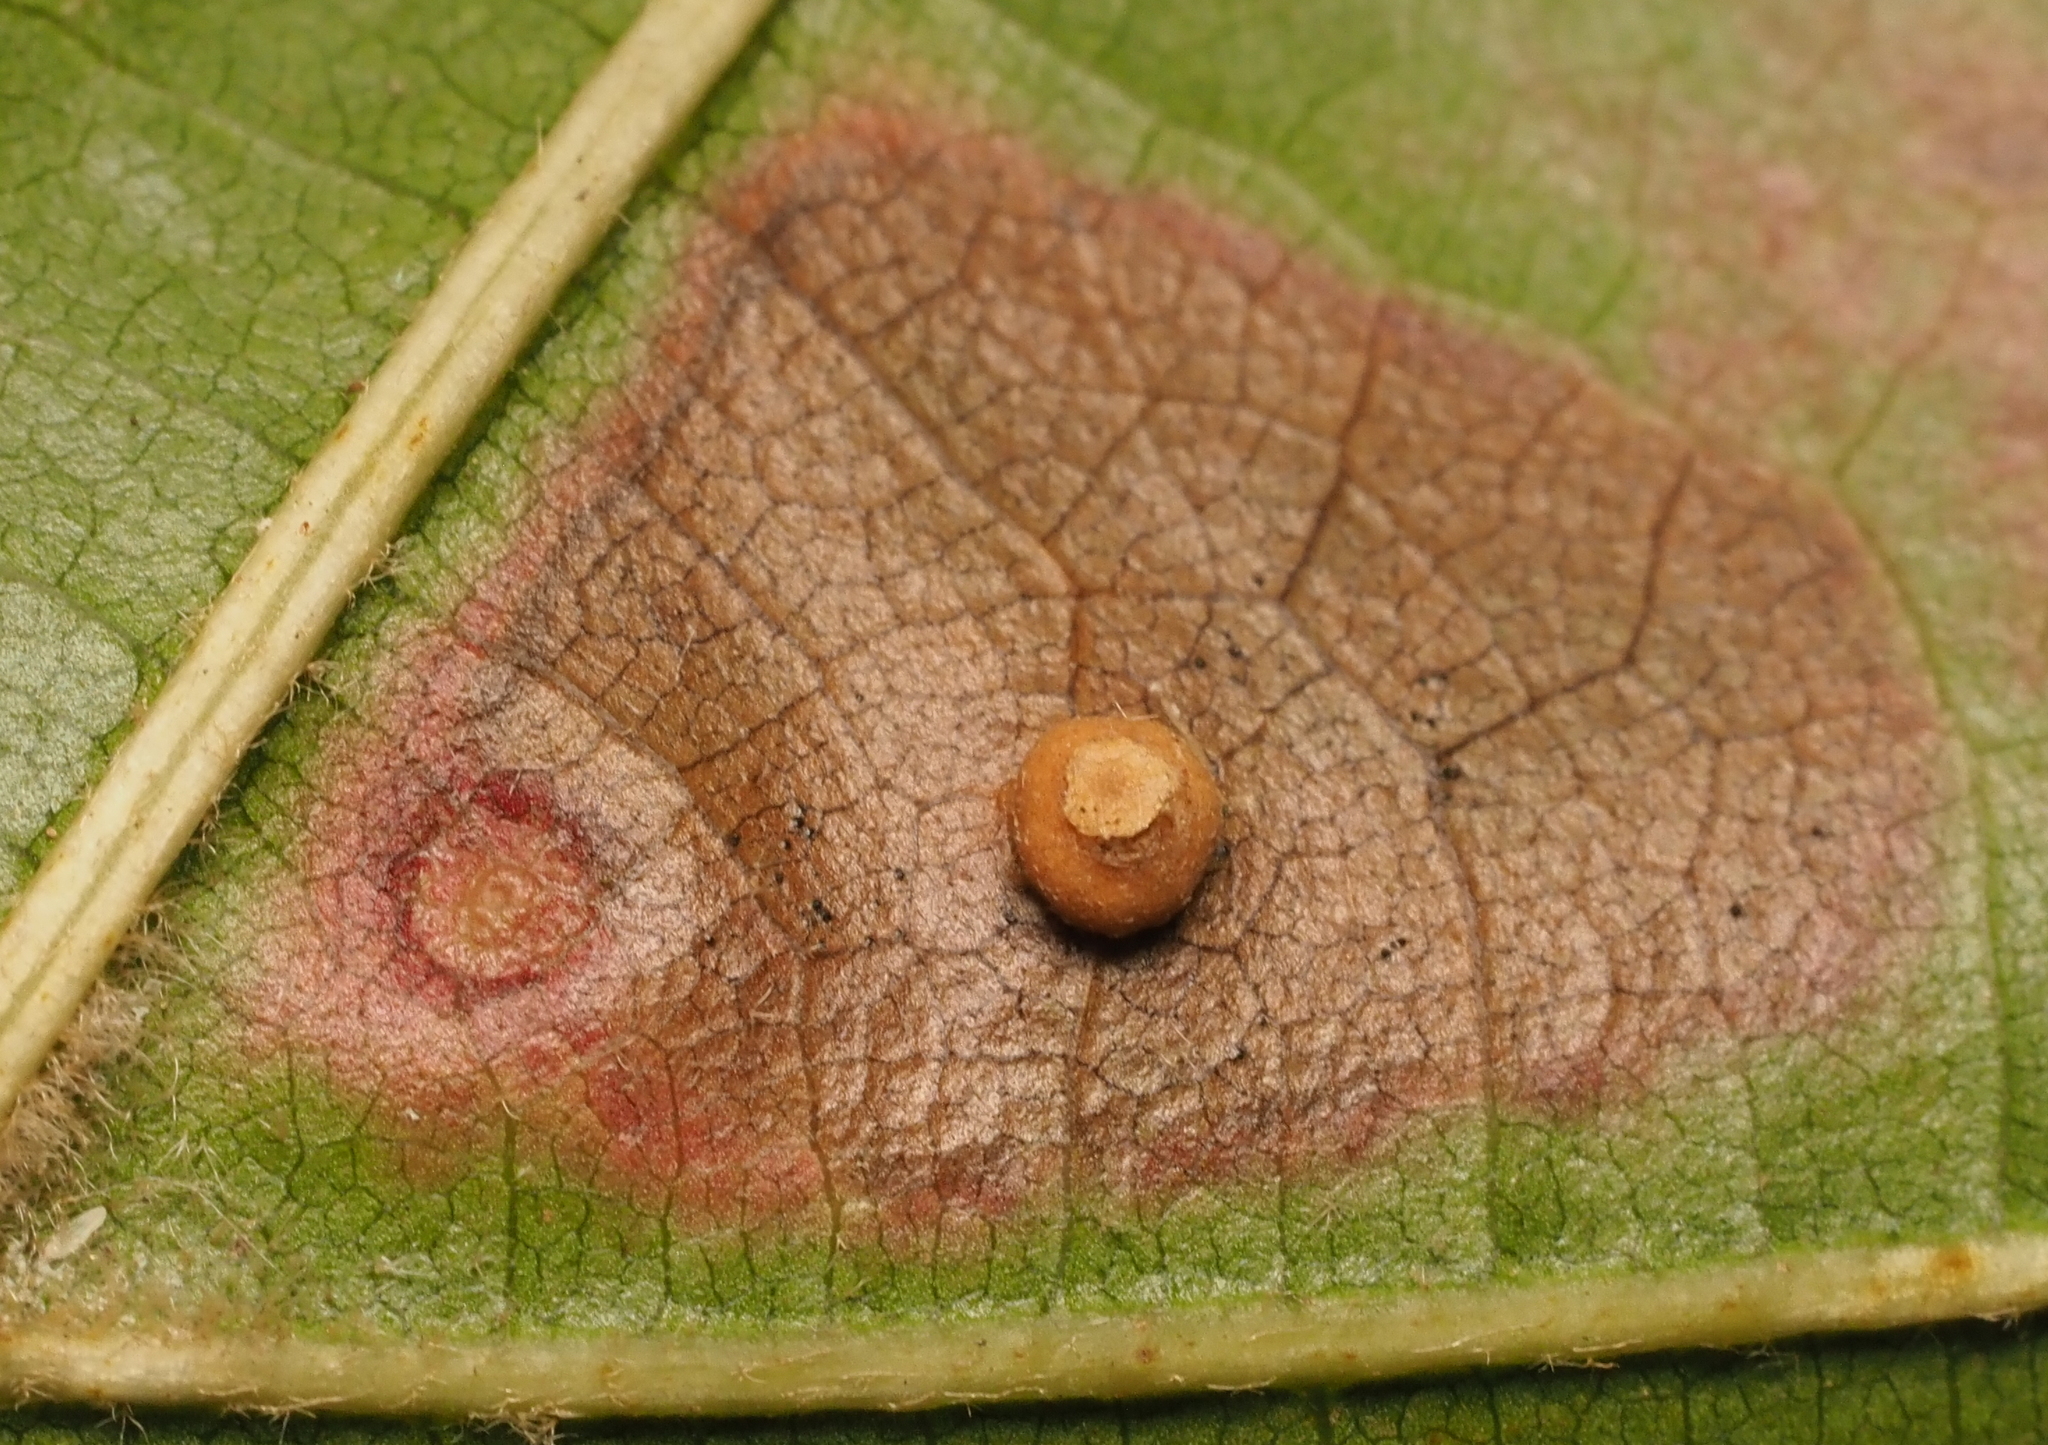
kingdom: Animalia
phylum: Arthropoda
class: Insecta
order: Diptera
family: Cecidomyiidae
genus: Polystepha
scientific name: Polystepha pilulae
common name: Oak leaf gall midge
